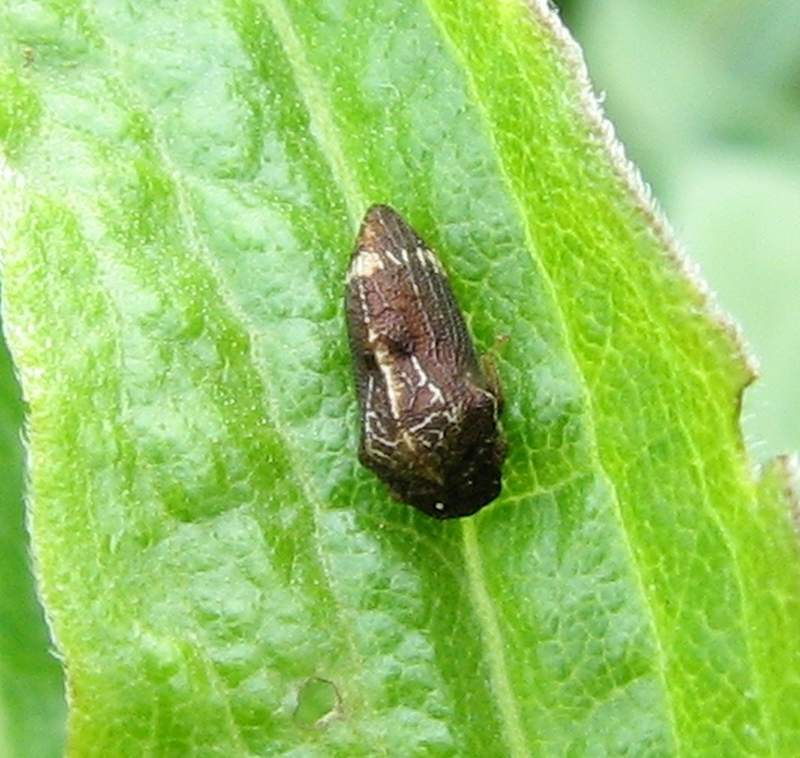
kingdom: Animalia
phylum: Arthropoda
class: Insecta
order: Hemiptera
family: Membracidae
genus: Publilia
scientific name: Publilia concava
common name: Aster treehopper
